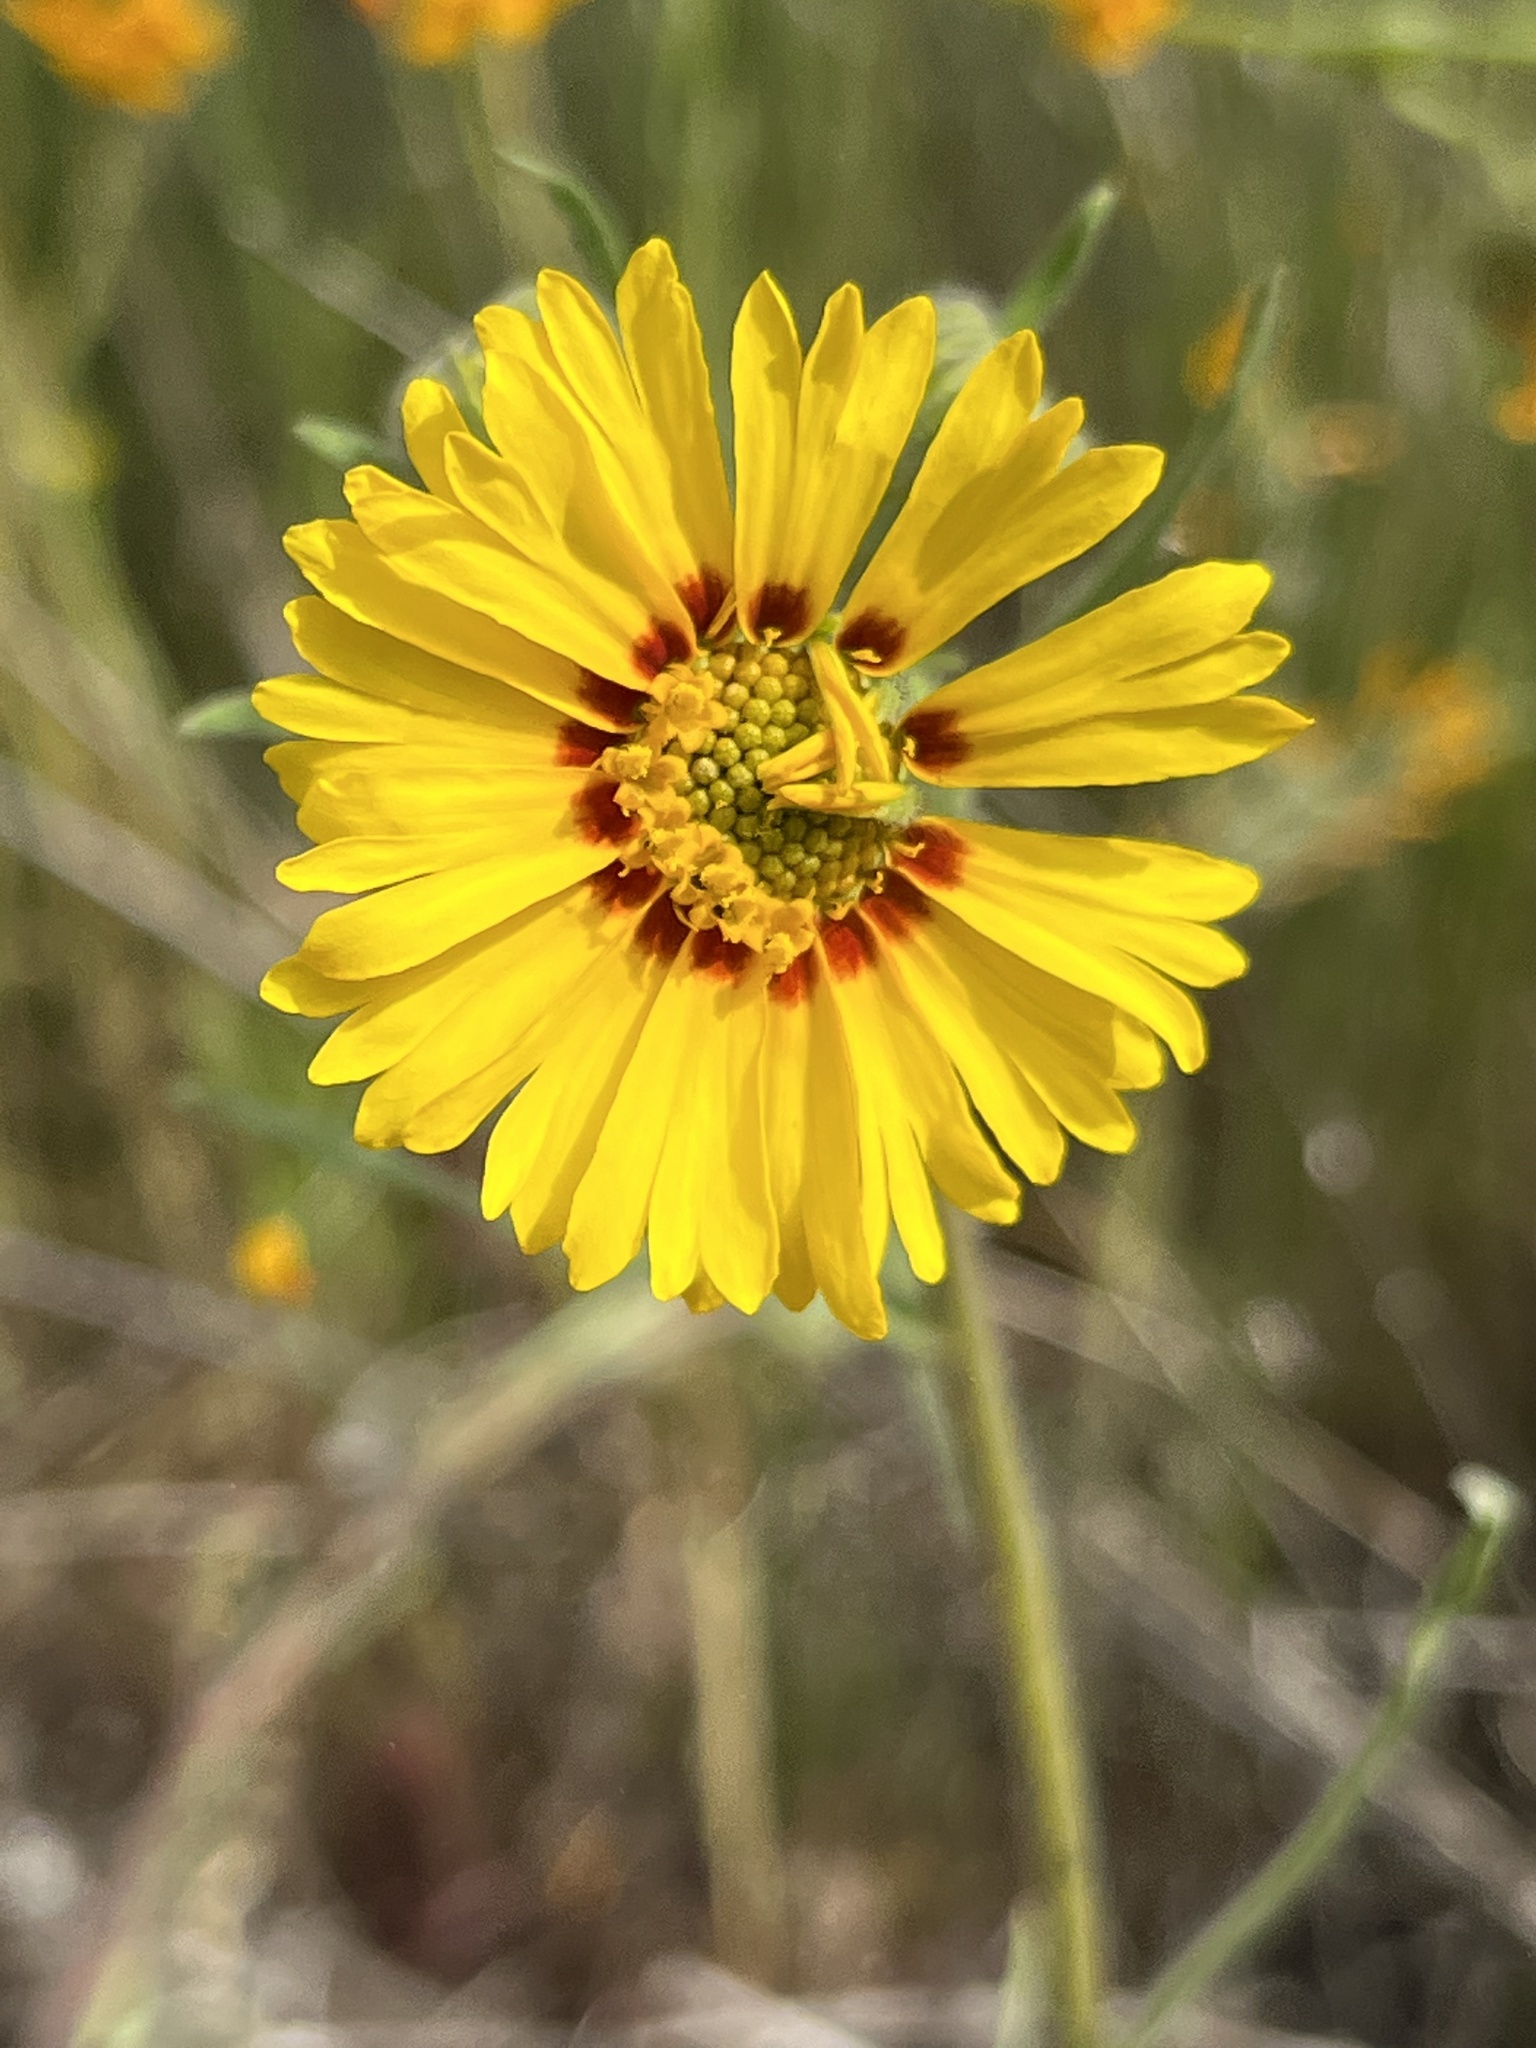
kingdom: Plantae
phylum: Tracheophyta
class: Magnoliopsida
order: Asterales
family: Asteraceae
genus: Madia
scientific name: Madia elegans
